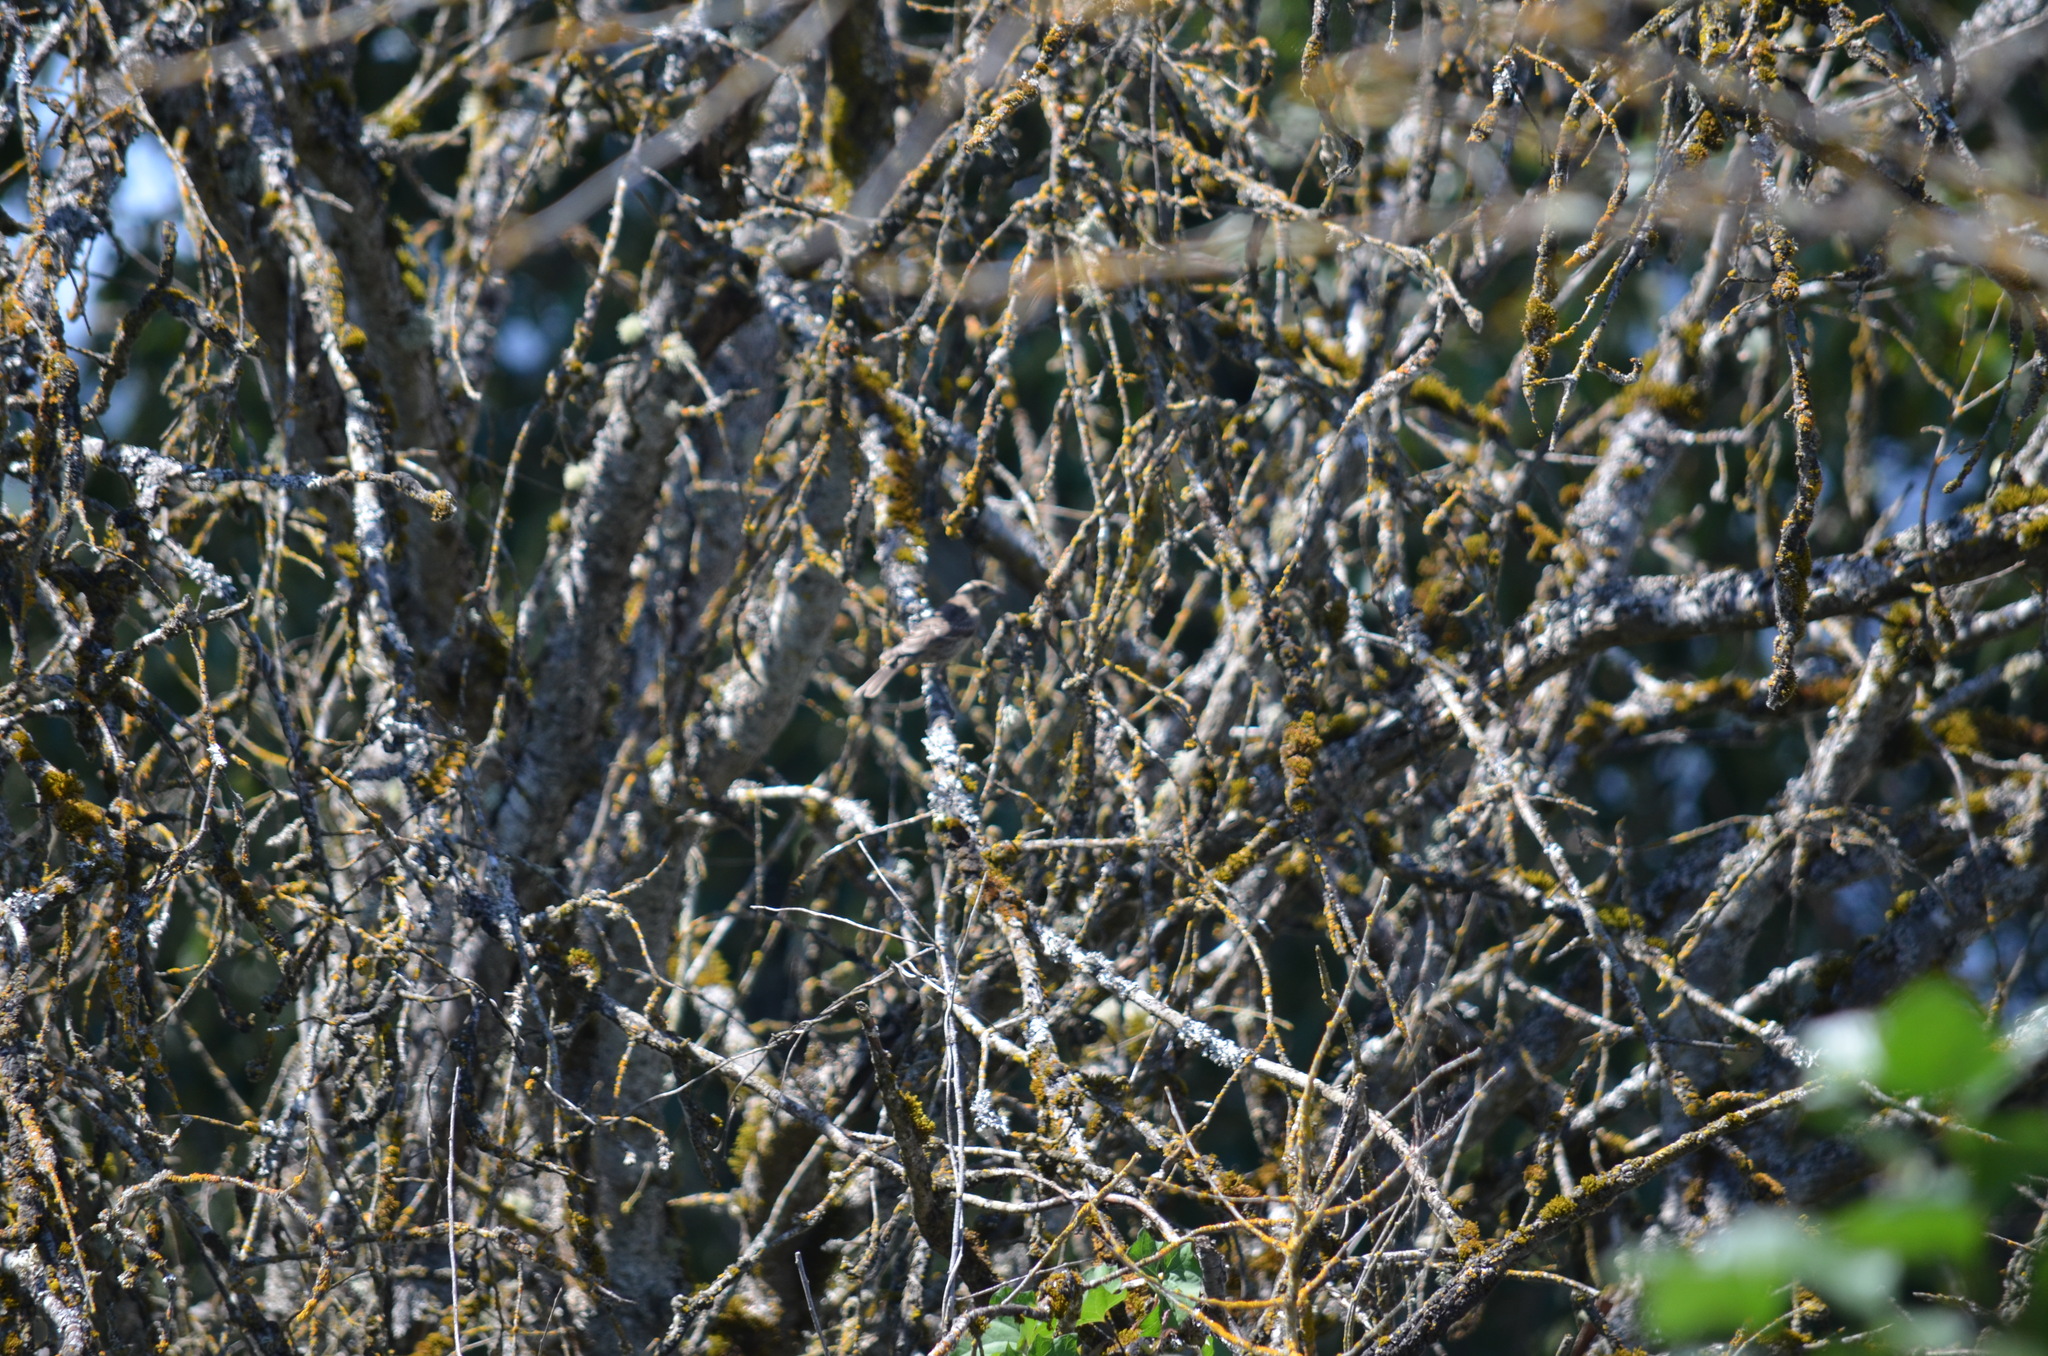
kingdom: Animalia
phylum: Chordata
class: Aves
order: Passeriformes
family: Icteridae
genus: Molothrus
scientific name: Molothrus ater
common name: Brown-headed cowbird
